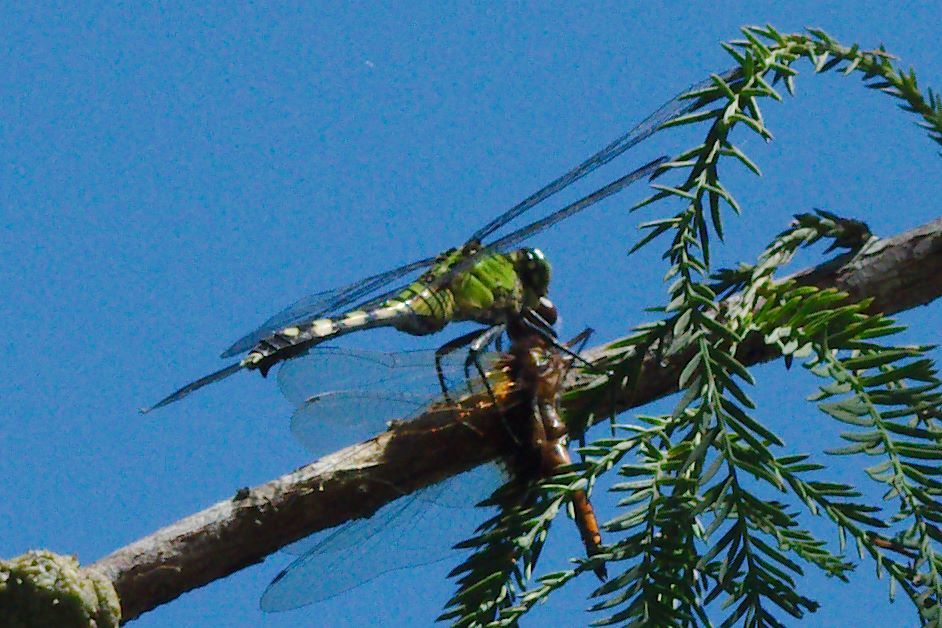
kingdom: Animalia
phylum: Arthropoda
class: Insecta
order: Odonata
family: Libellulidae
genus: Erythemis
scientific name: Erythemis simplicicollis
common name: Eastern pondhawk
